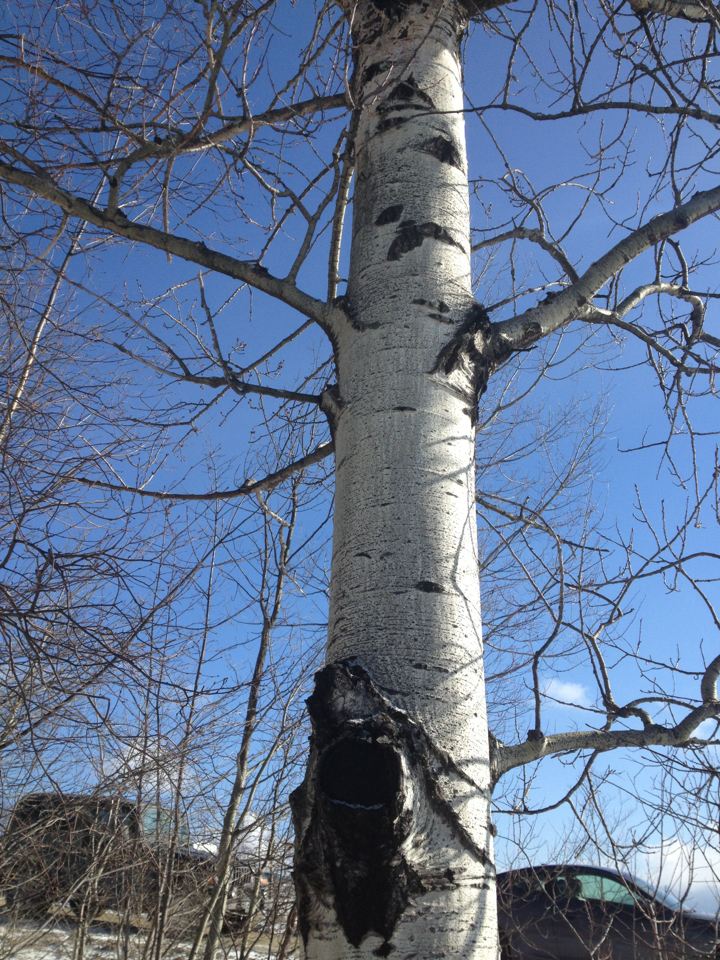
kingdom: Plantae
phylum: Tracheophyta
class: Magnoliopsida
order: Malpighiales
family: Salicaceae
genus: Populus
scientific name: Populus tremuloides
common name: Quaking aspen
